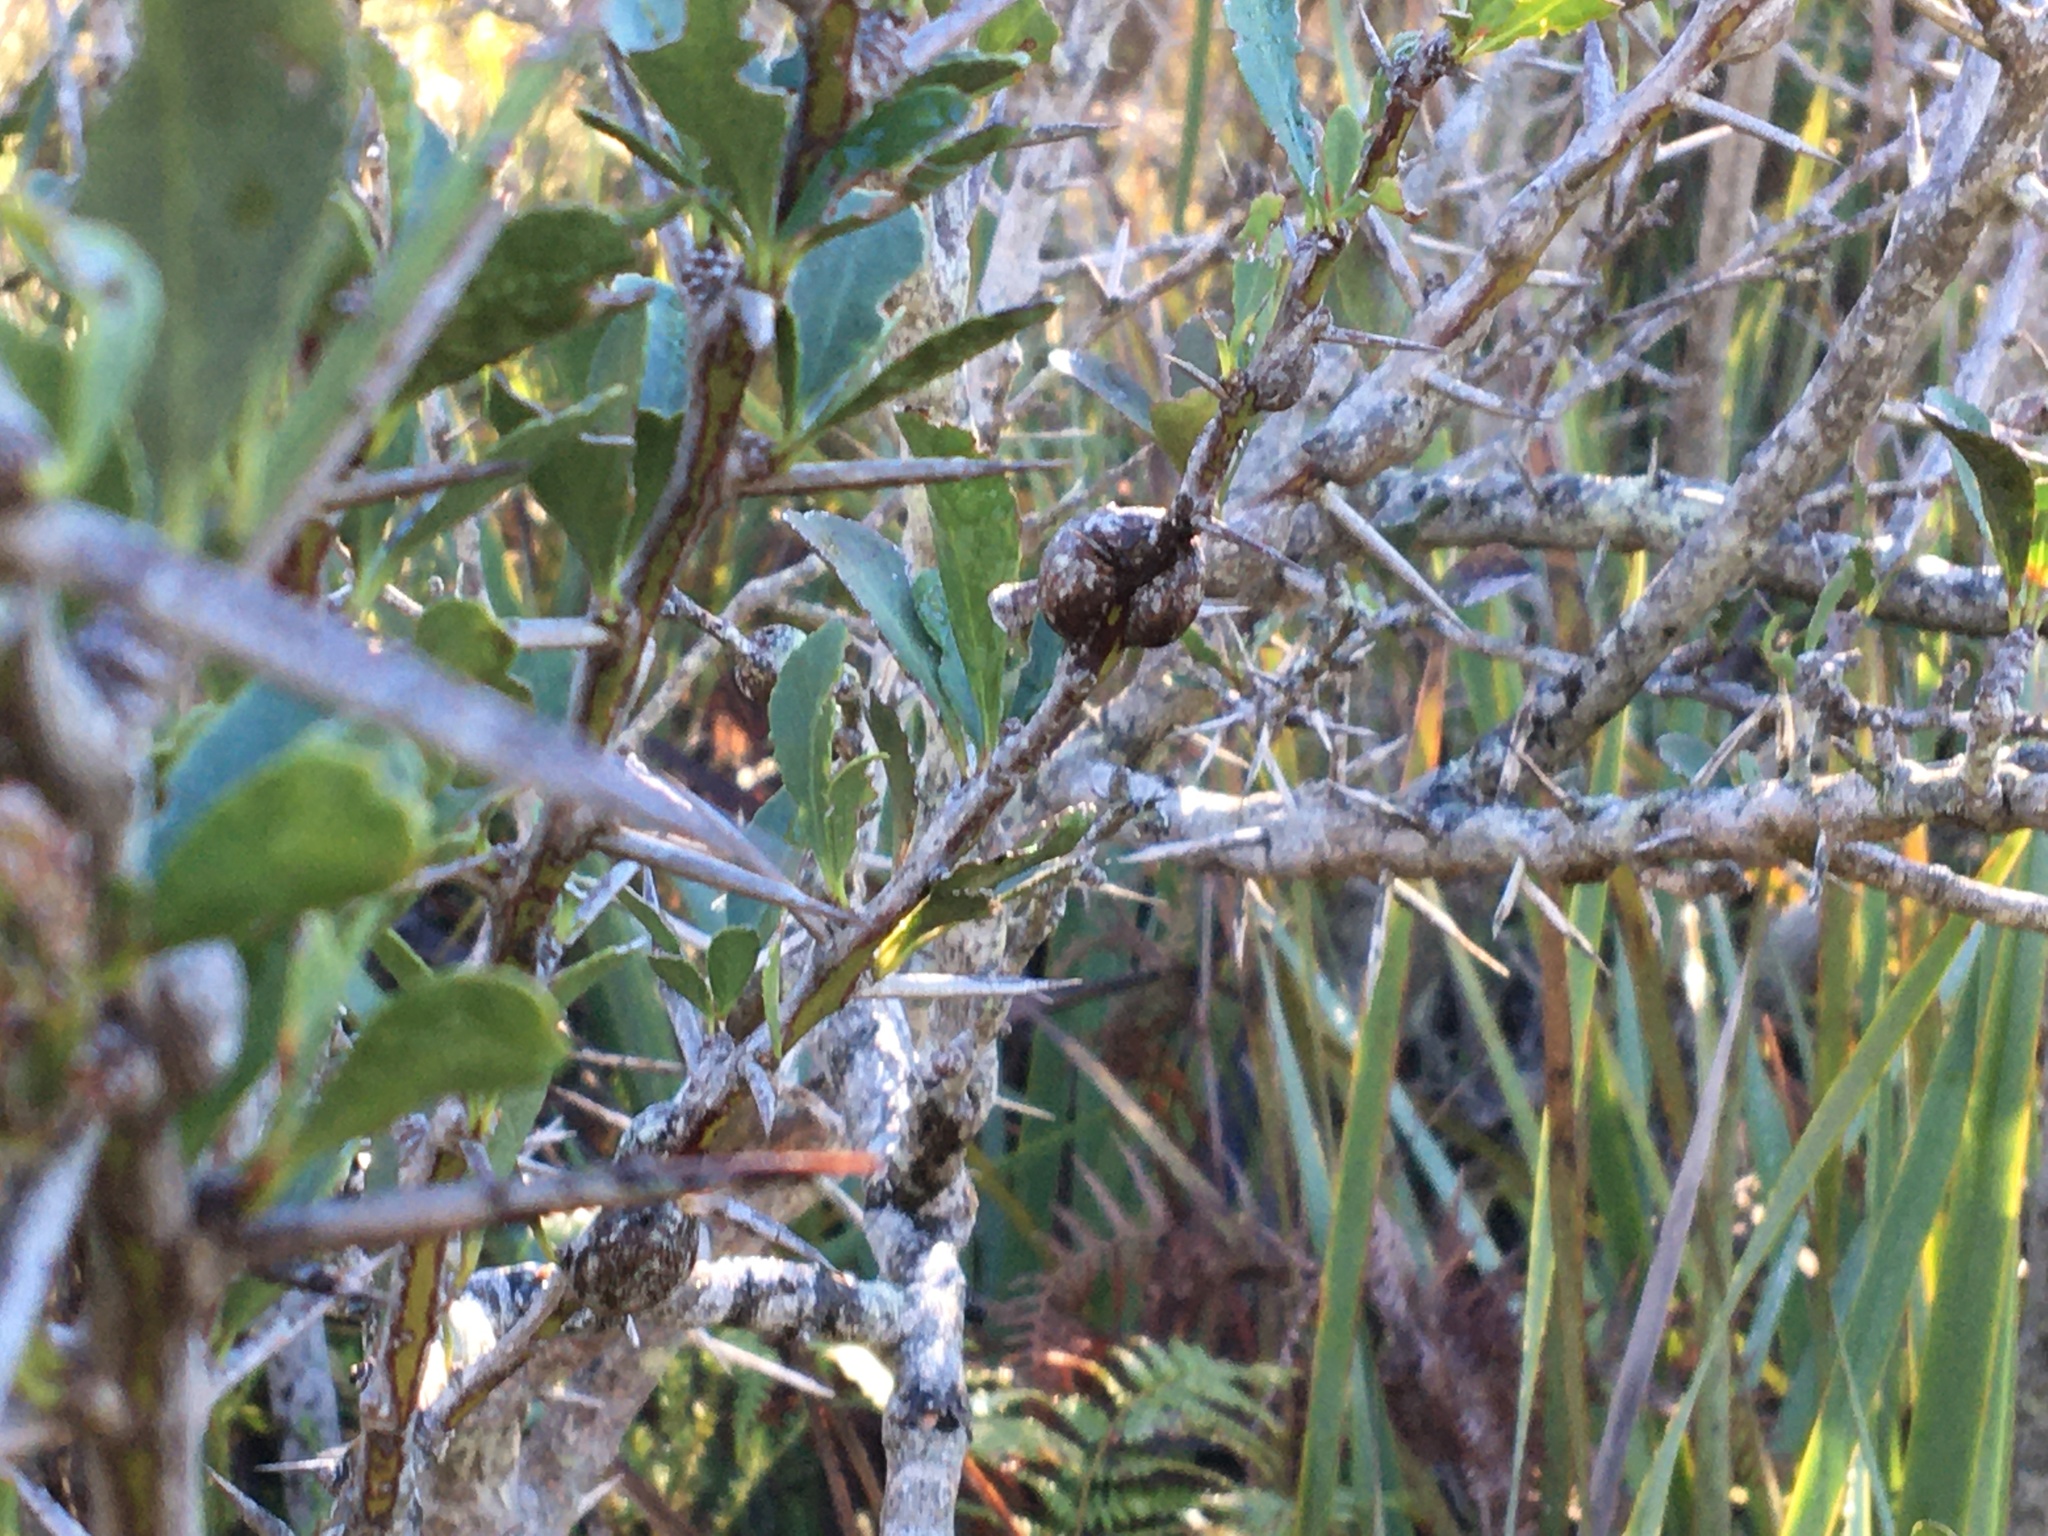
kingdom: Plantae
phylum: Tracheophyta
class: Magnoliopsida
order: Celastrales
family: Celastraceae
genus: Gymnosporia
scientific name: Gymnosporia buxifolia
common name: Common spike-thorn
